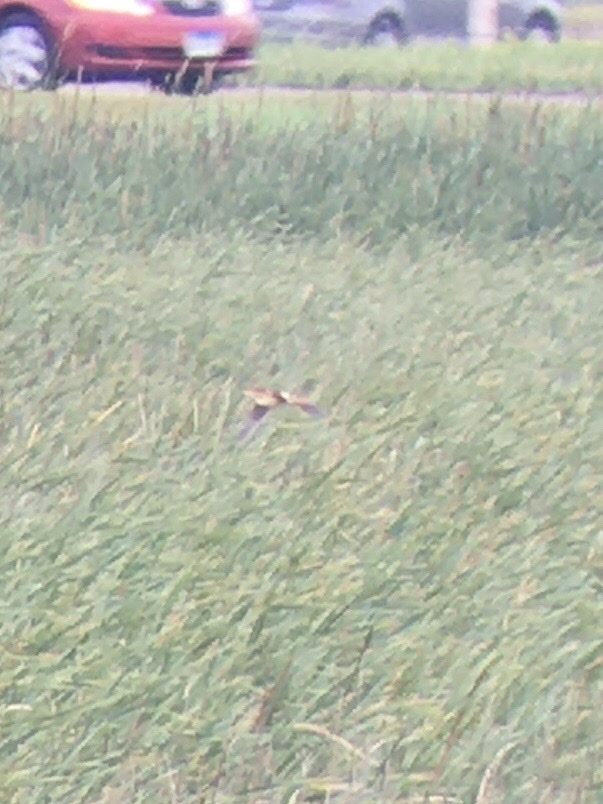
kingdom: Animalia
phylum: Chordata
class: Aves
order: Pelecaniformes
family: Ardeidae
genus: Ixobrychus
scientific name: Ixobrychus exilis
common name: Least bittern
